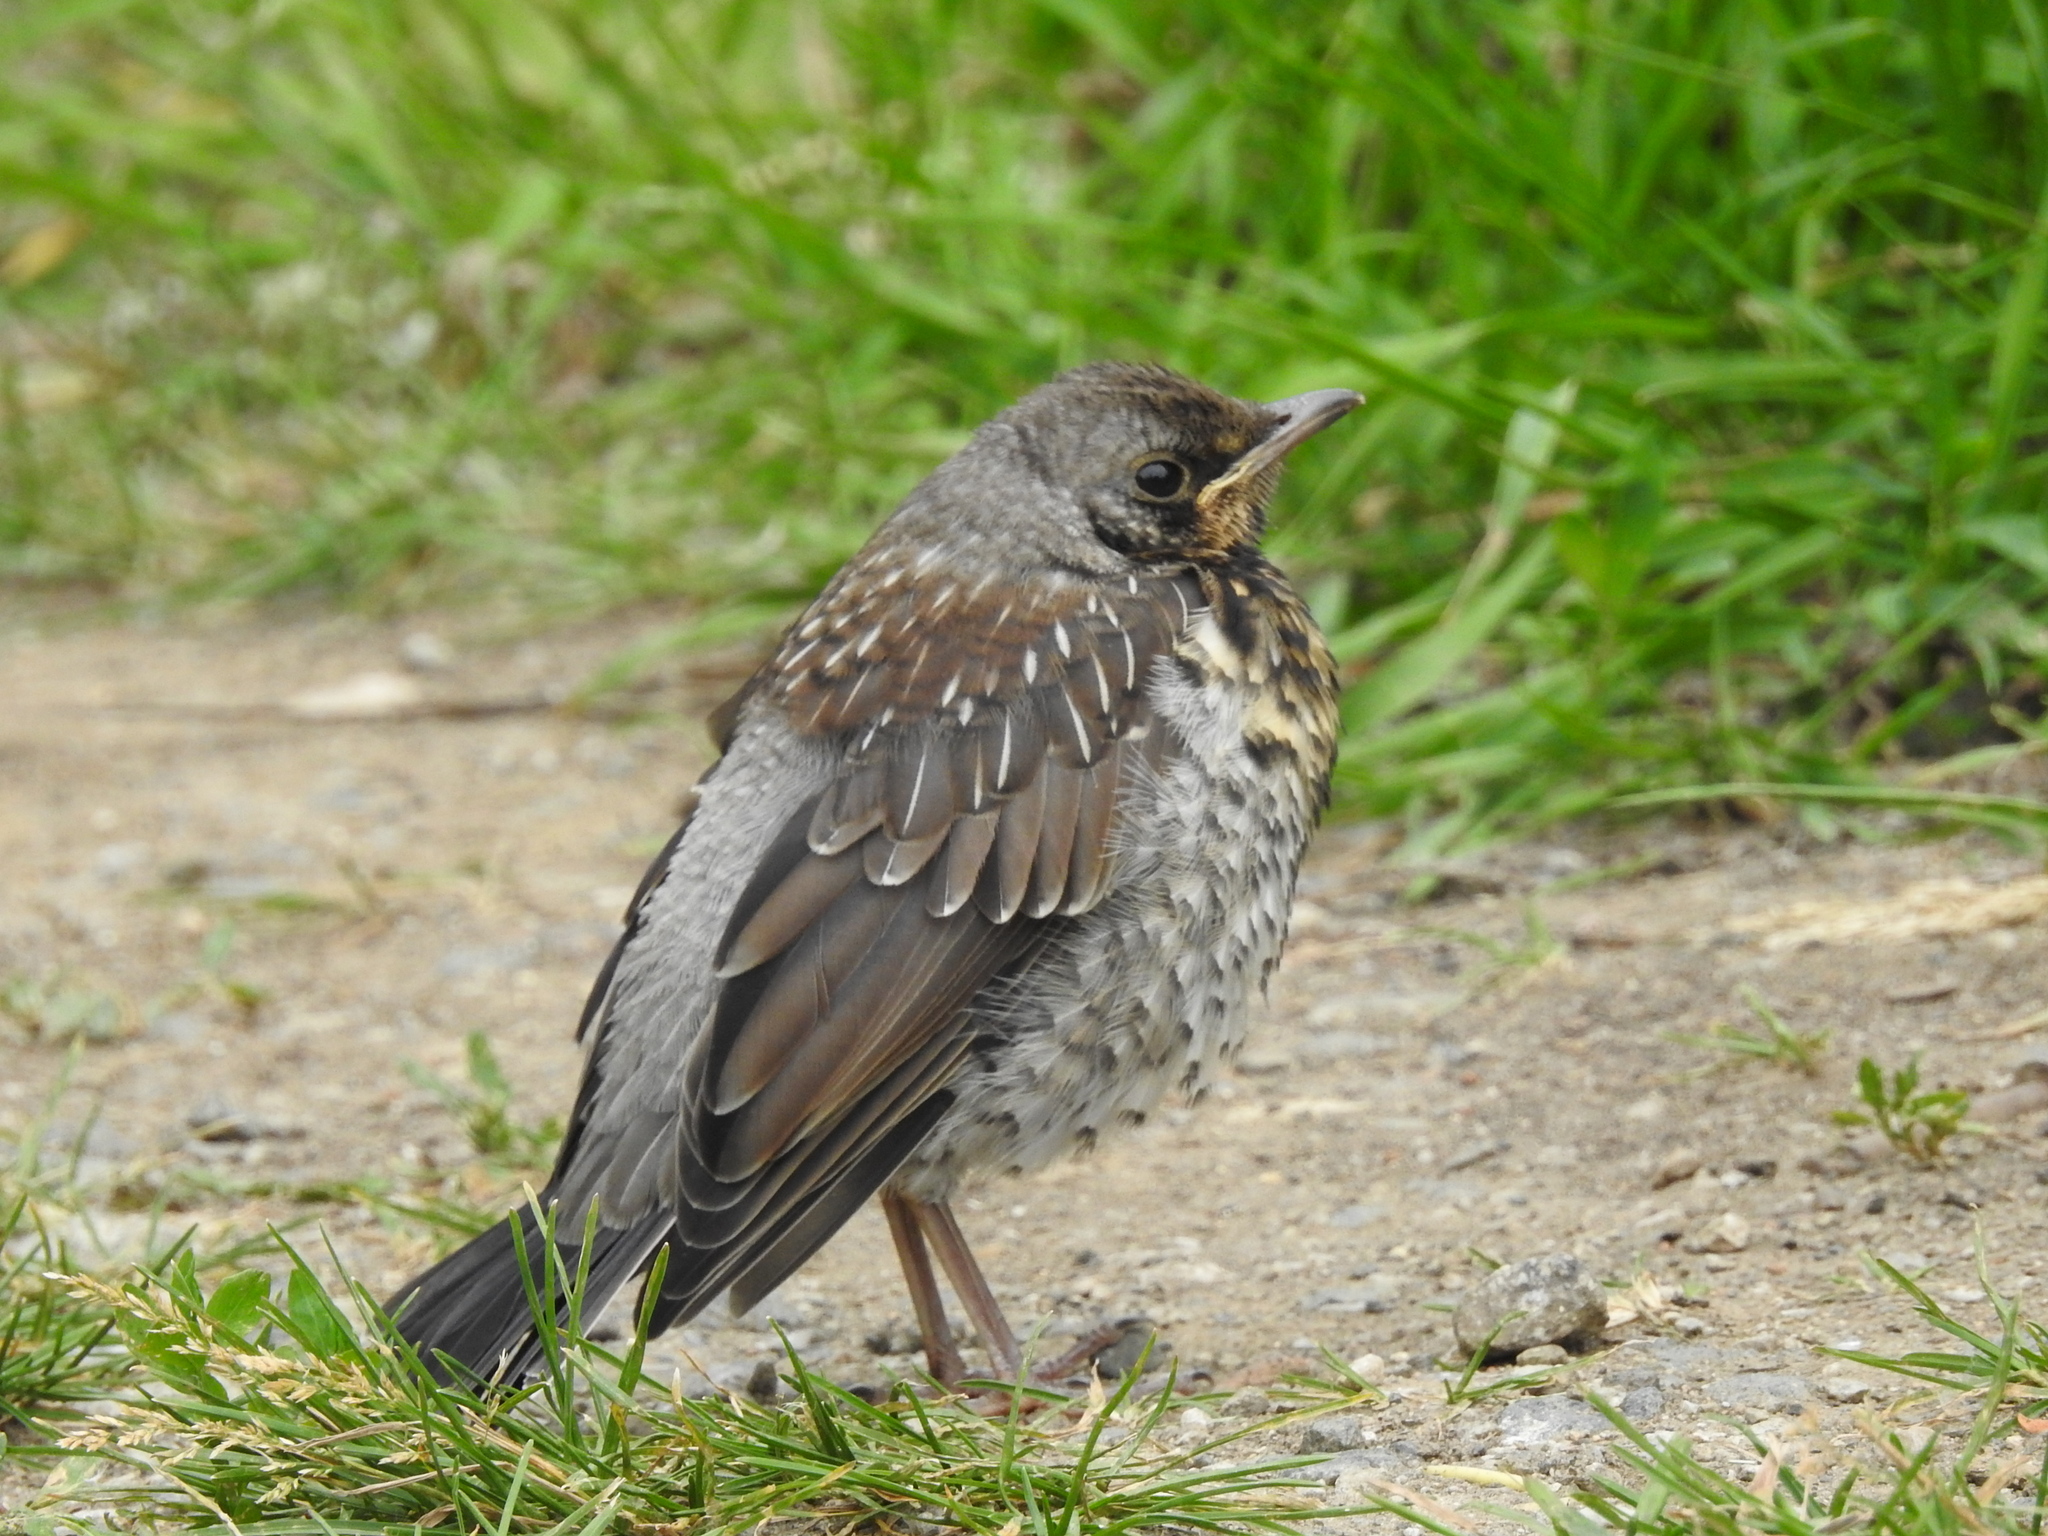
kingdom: Animalia
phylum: Chordata
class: Aves
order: Passeriformes
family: Turdidae
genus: Turdus
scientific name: Turdus pilaris
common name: Fieldfare
